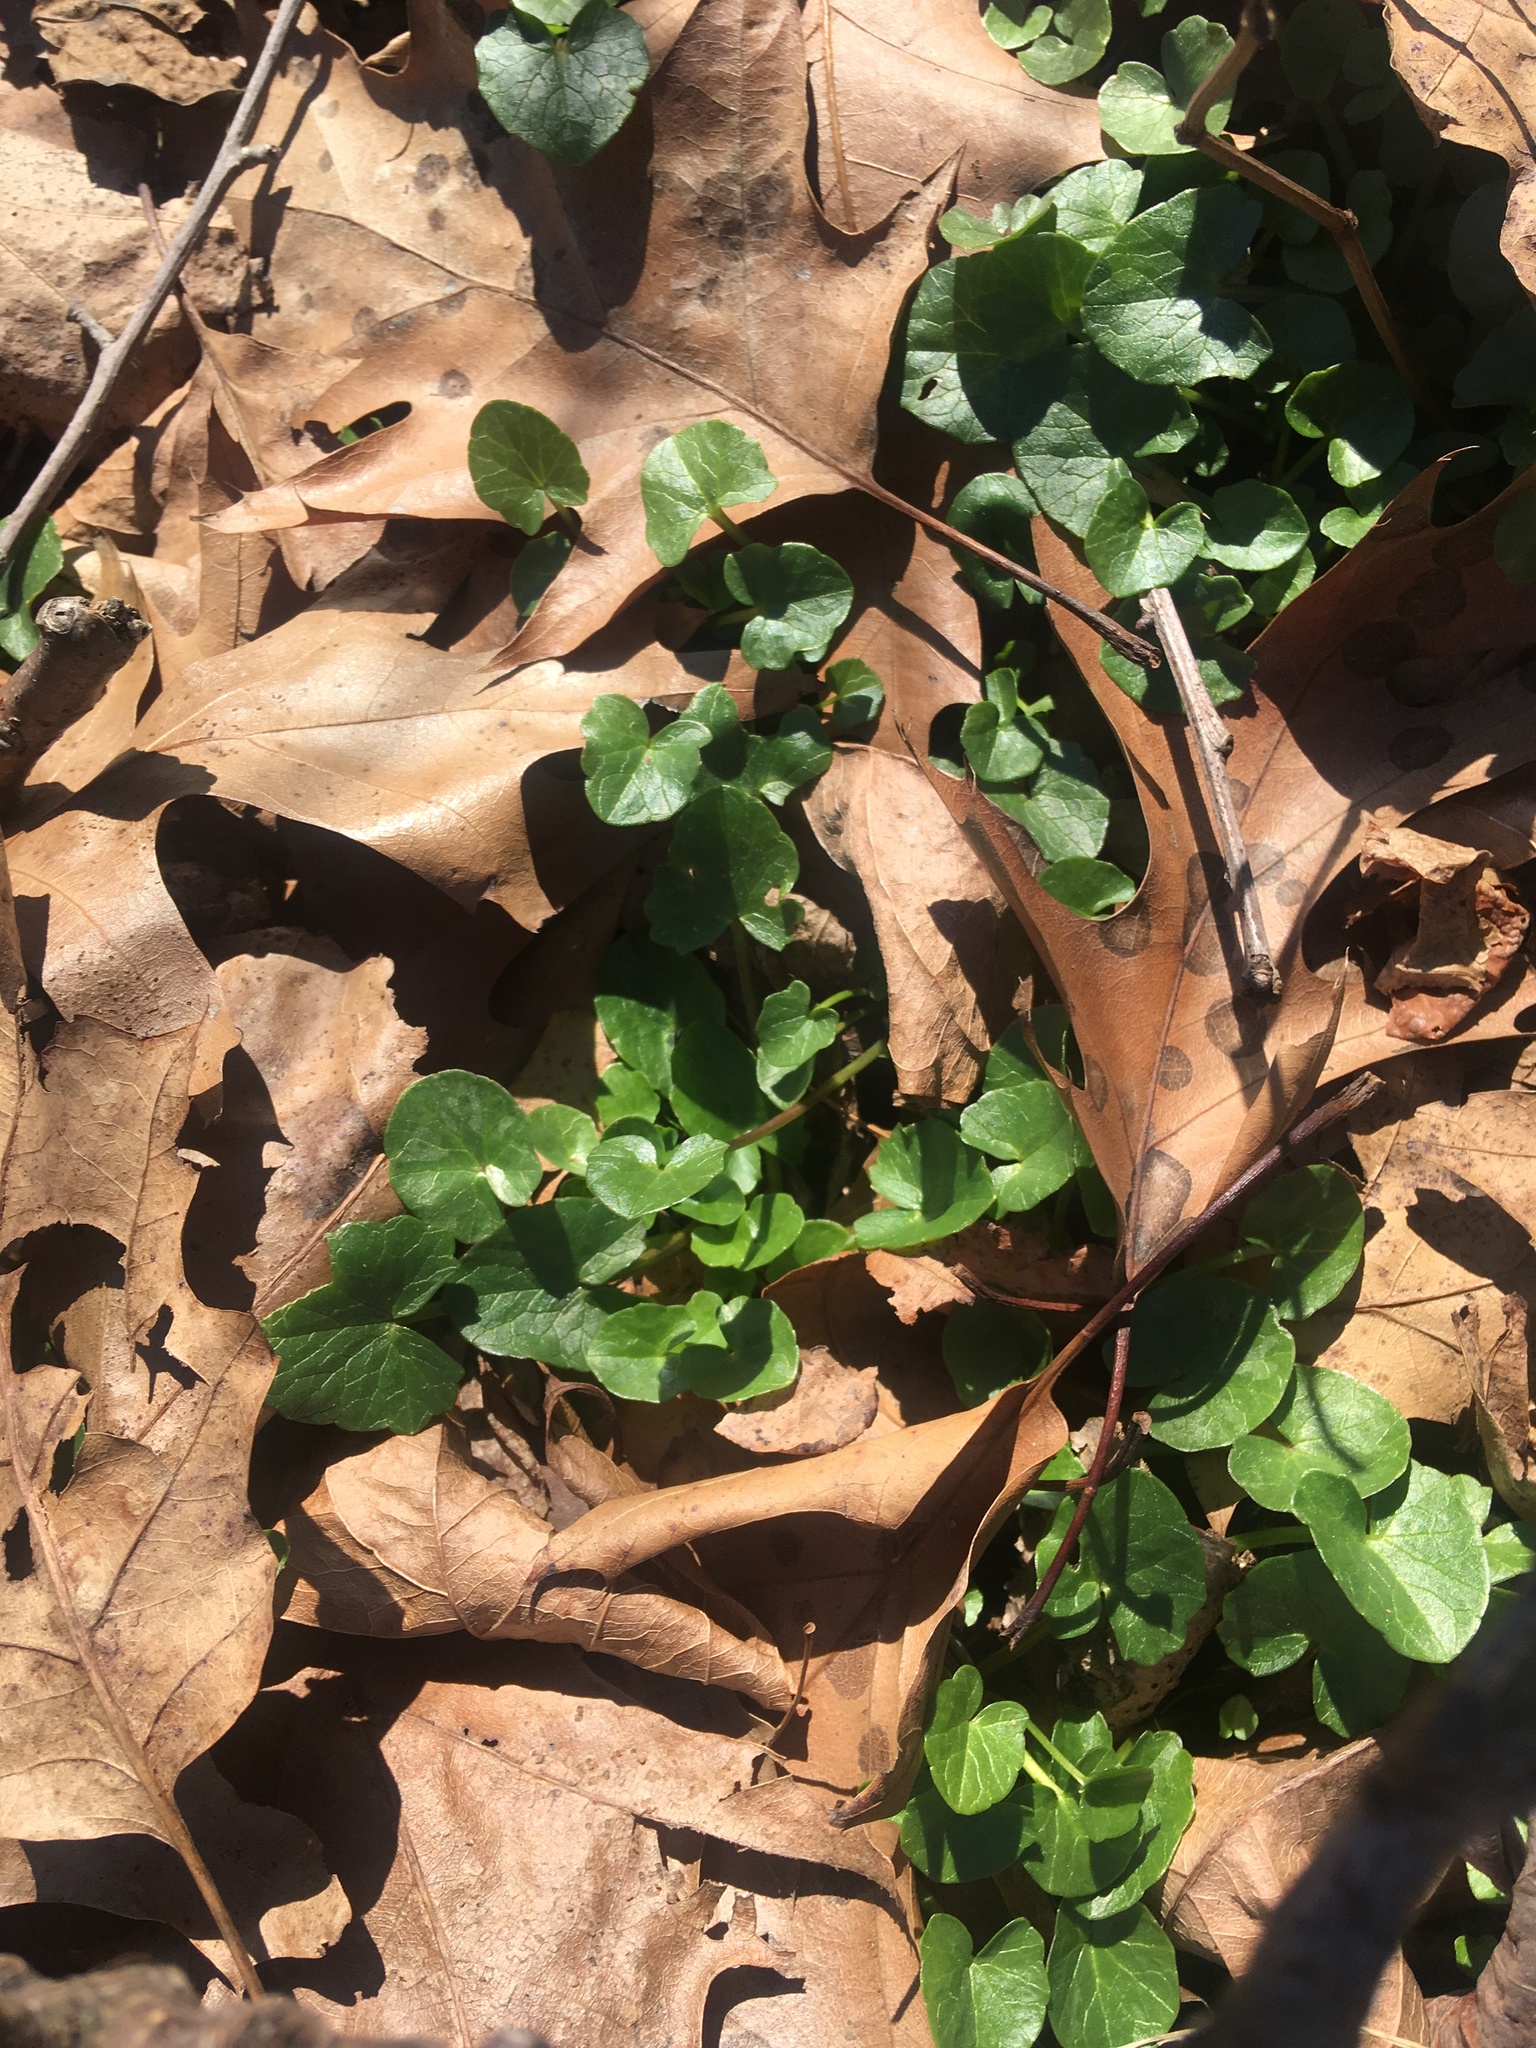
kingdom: Plantae
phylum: Tracheophyta
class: Magnoliopsida
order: Ranunculales
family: Ranunculaceae
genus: Ficaria
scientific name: Ficaria verna
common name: Lesser celandine
